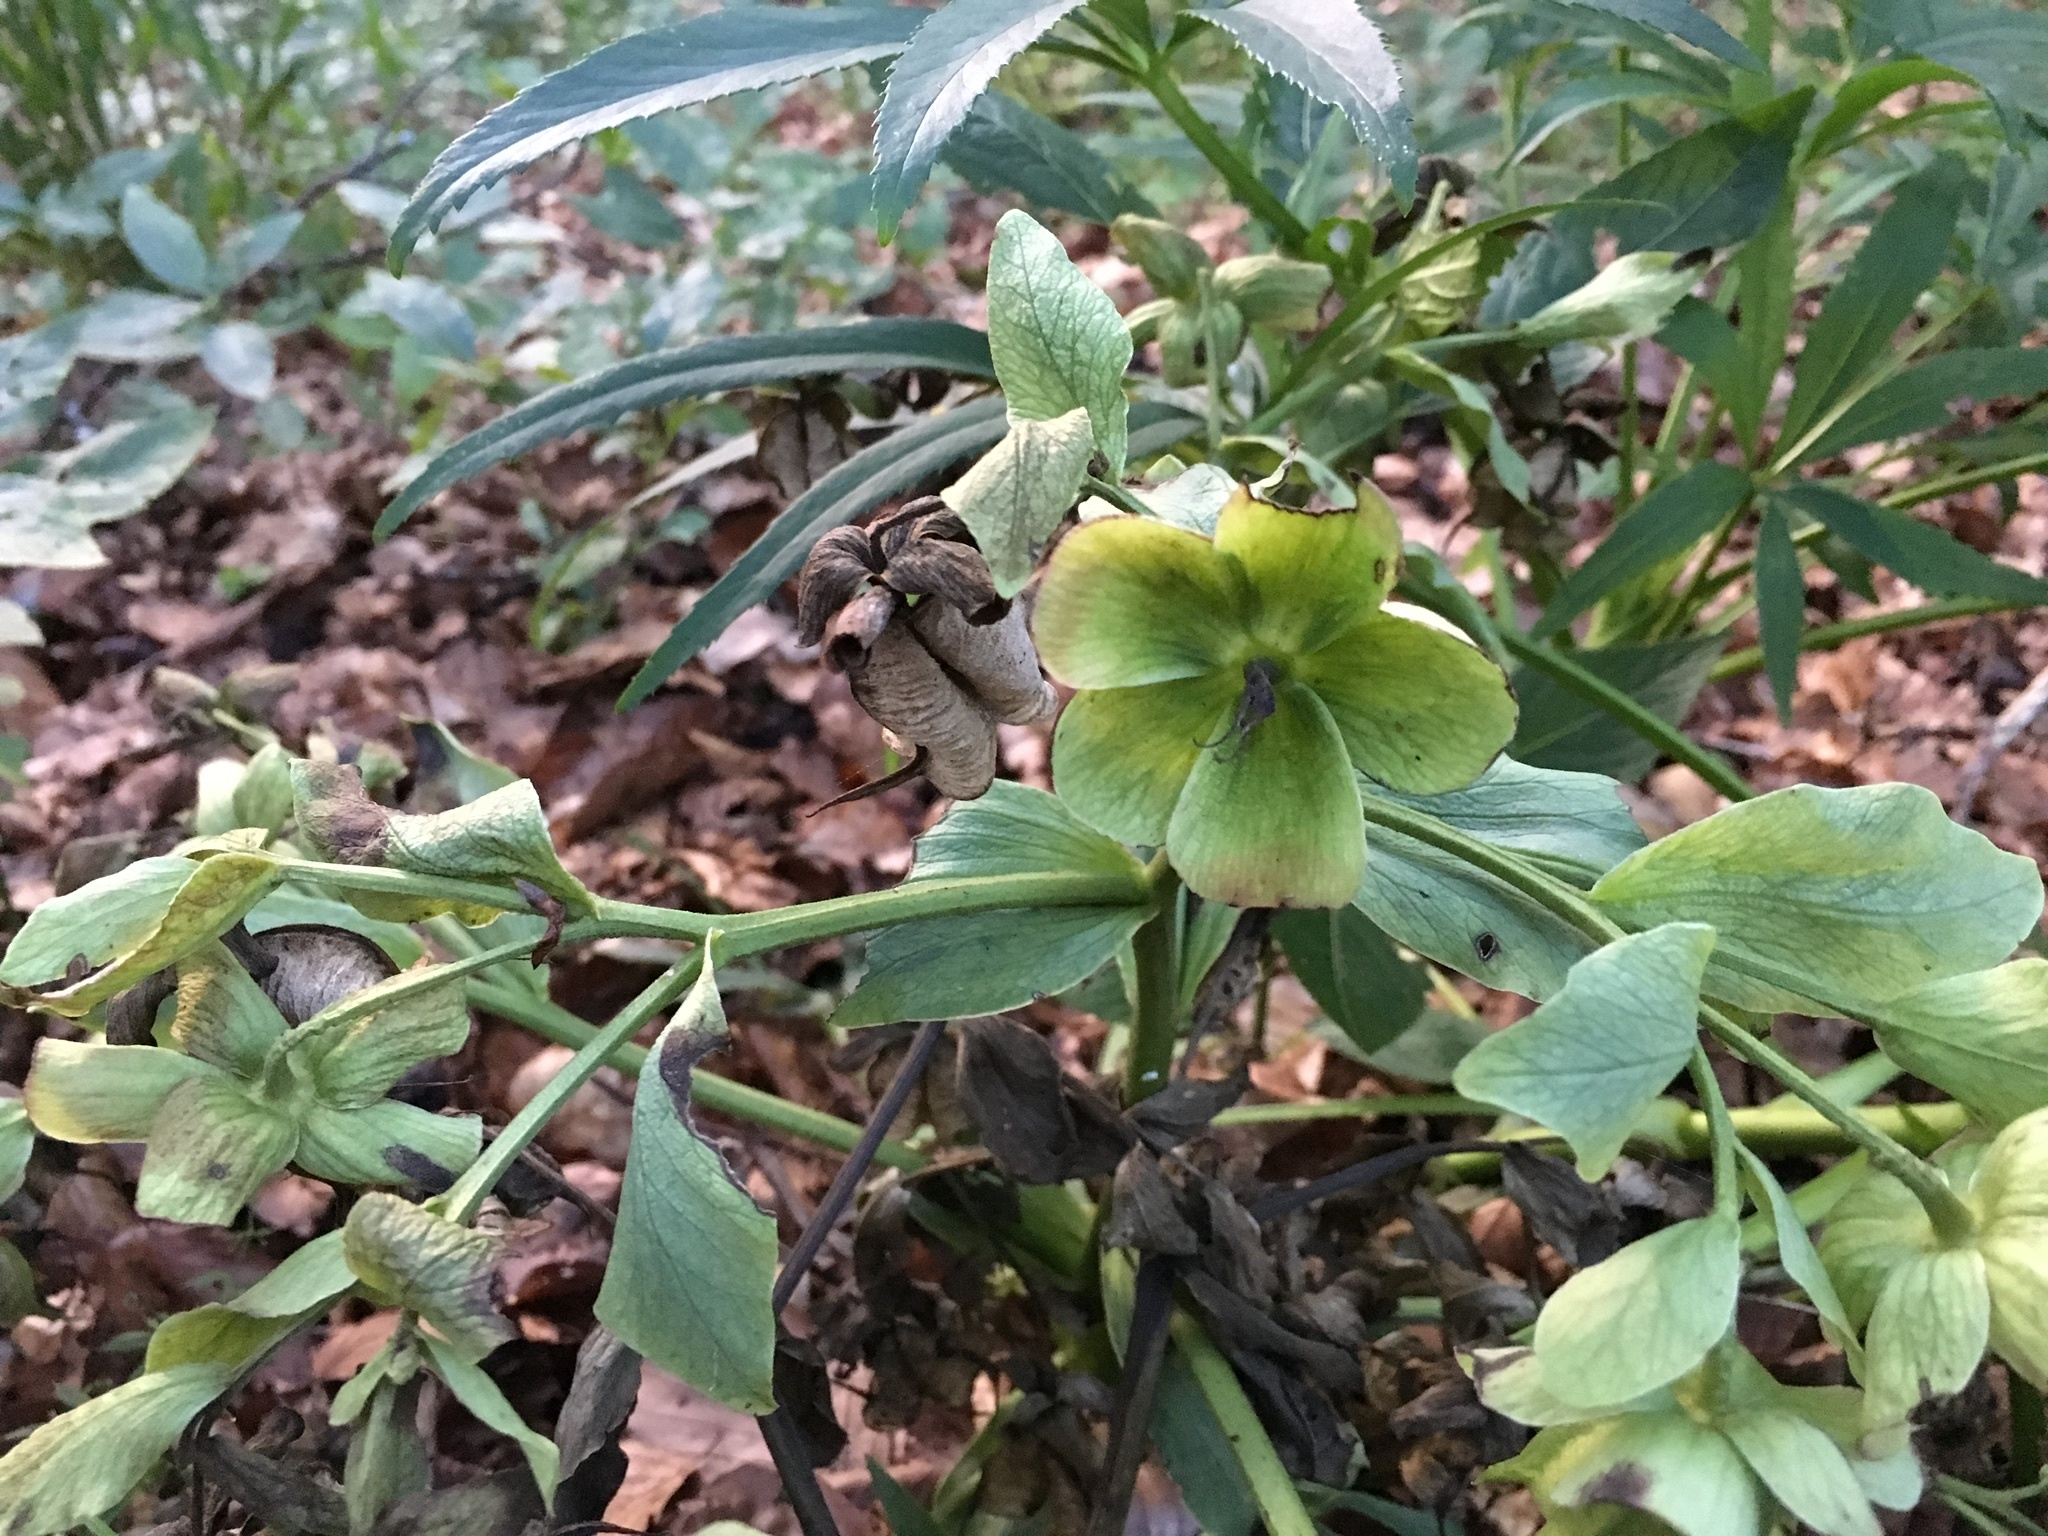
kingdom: Plantae
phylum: Tracheophyta
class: Magnoliopsida
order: Ranunculales
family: Ranunculaceae
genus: Helleborus
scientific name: Helleborus foetidus
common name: Stinking hellebore
